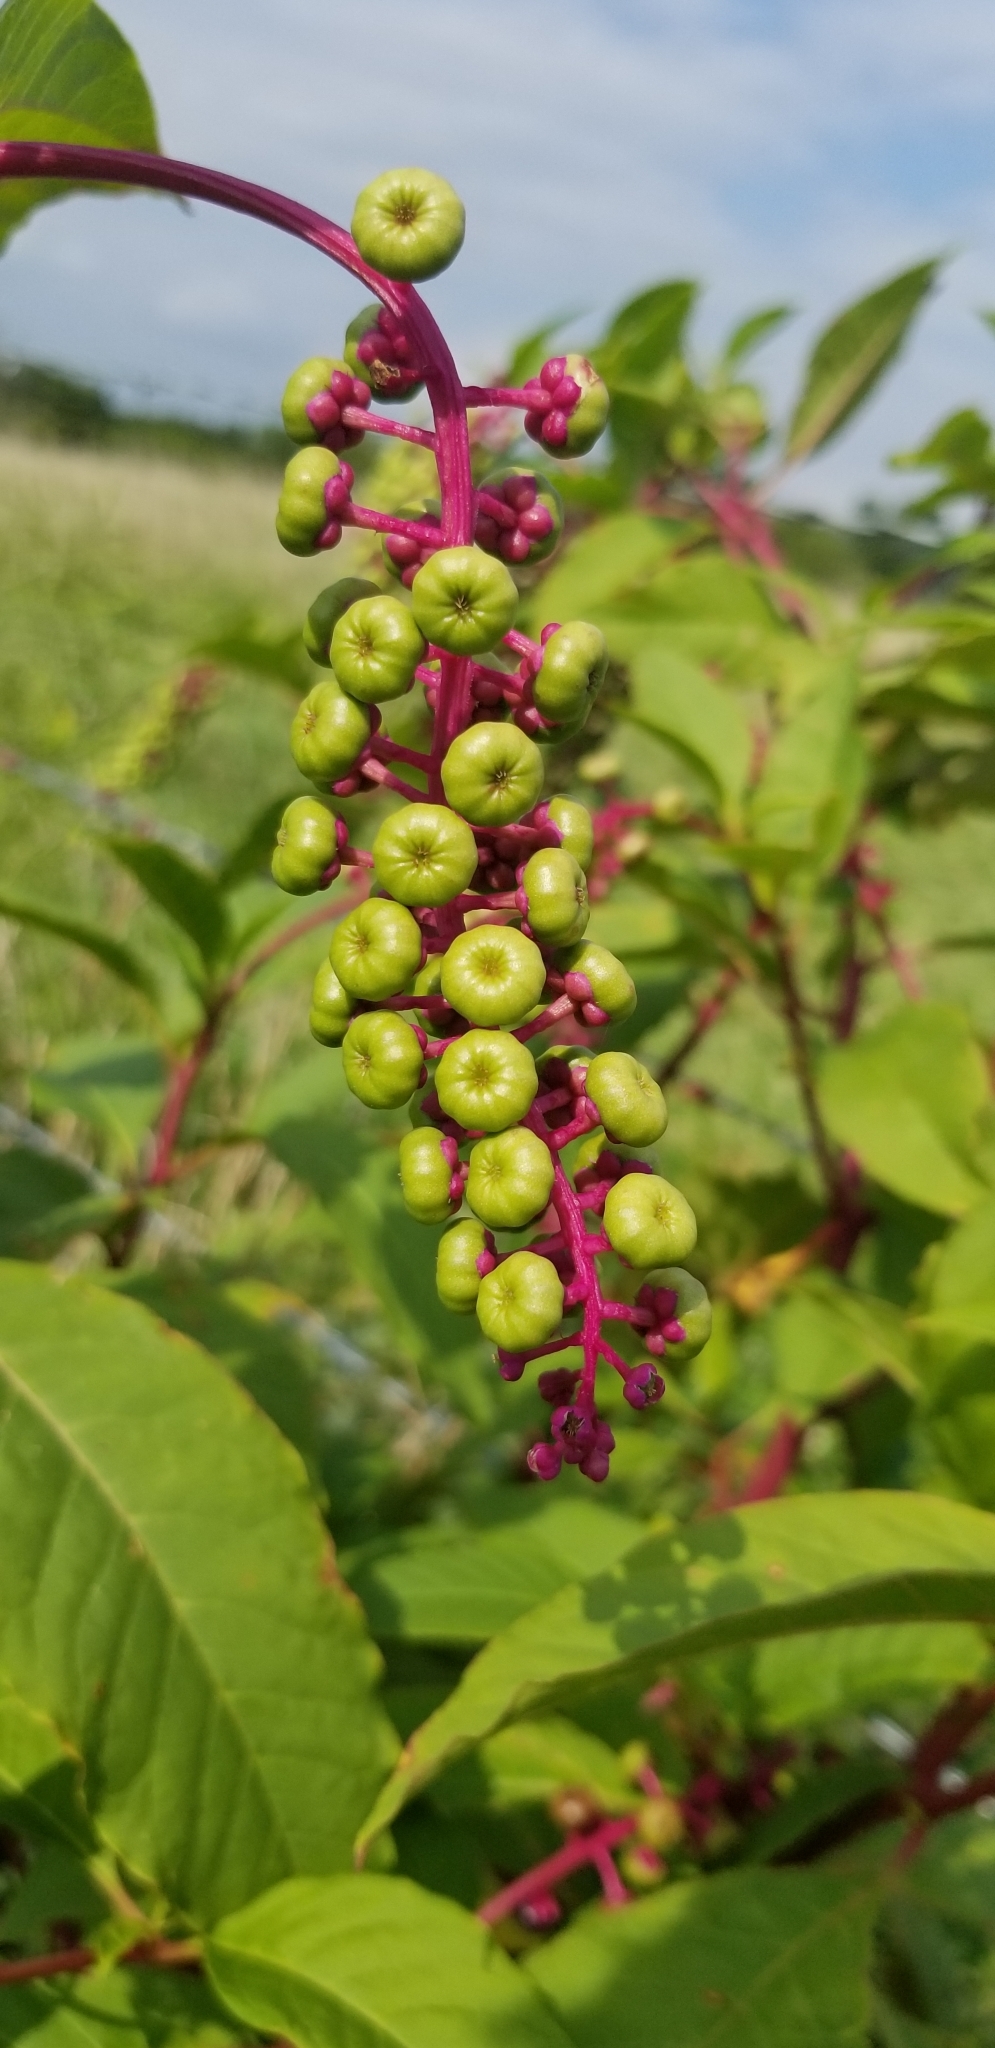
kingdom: Plantae
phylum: Tracheophyta
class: Magnoliopsida
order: Caryophyllales
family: Phytolaccaceae
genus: Phytolacca
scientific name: Phytolacca americana
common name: American pokeweed
